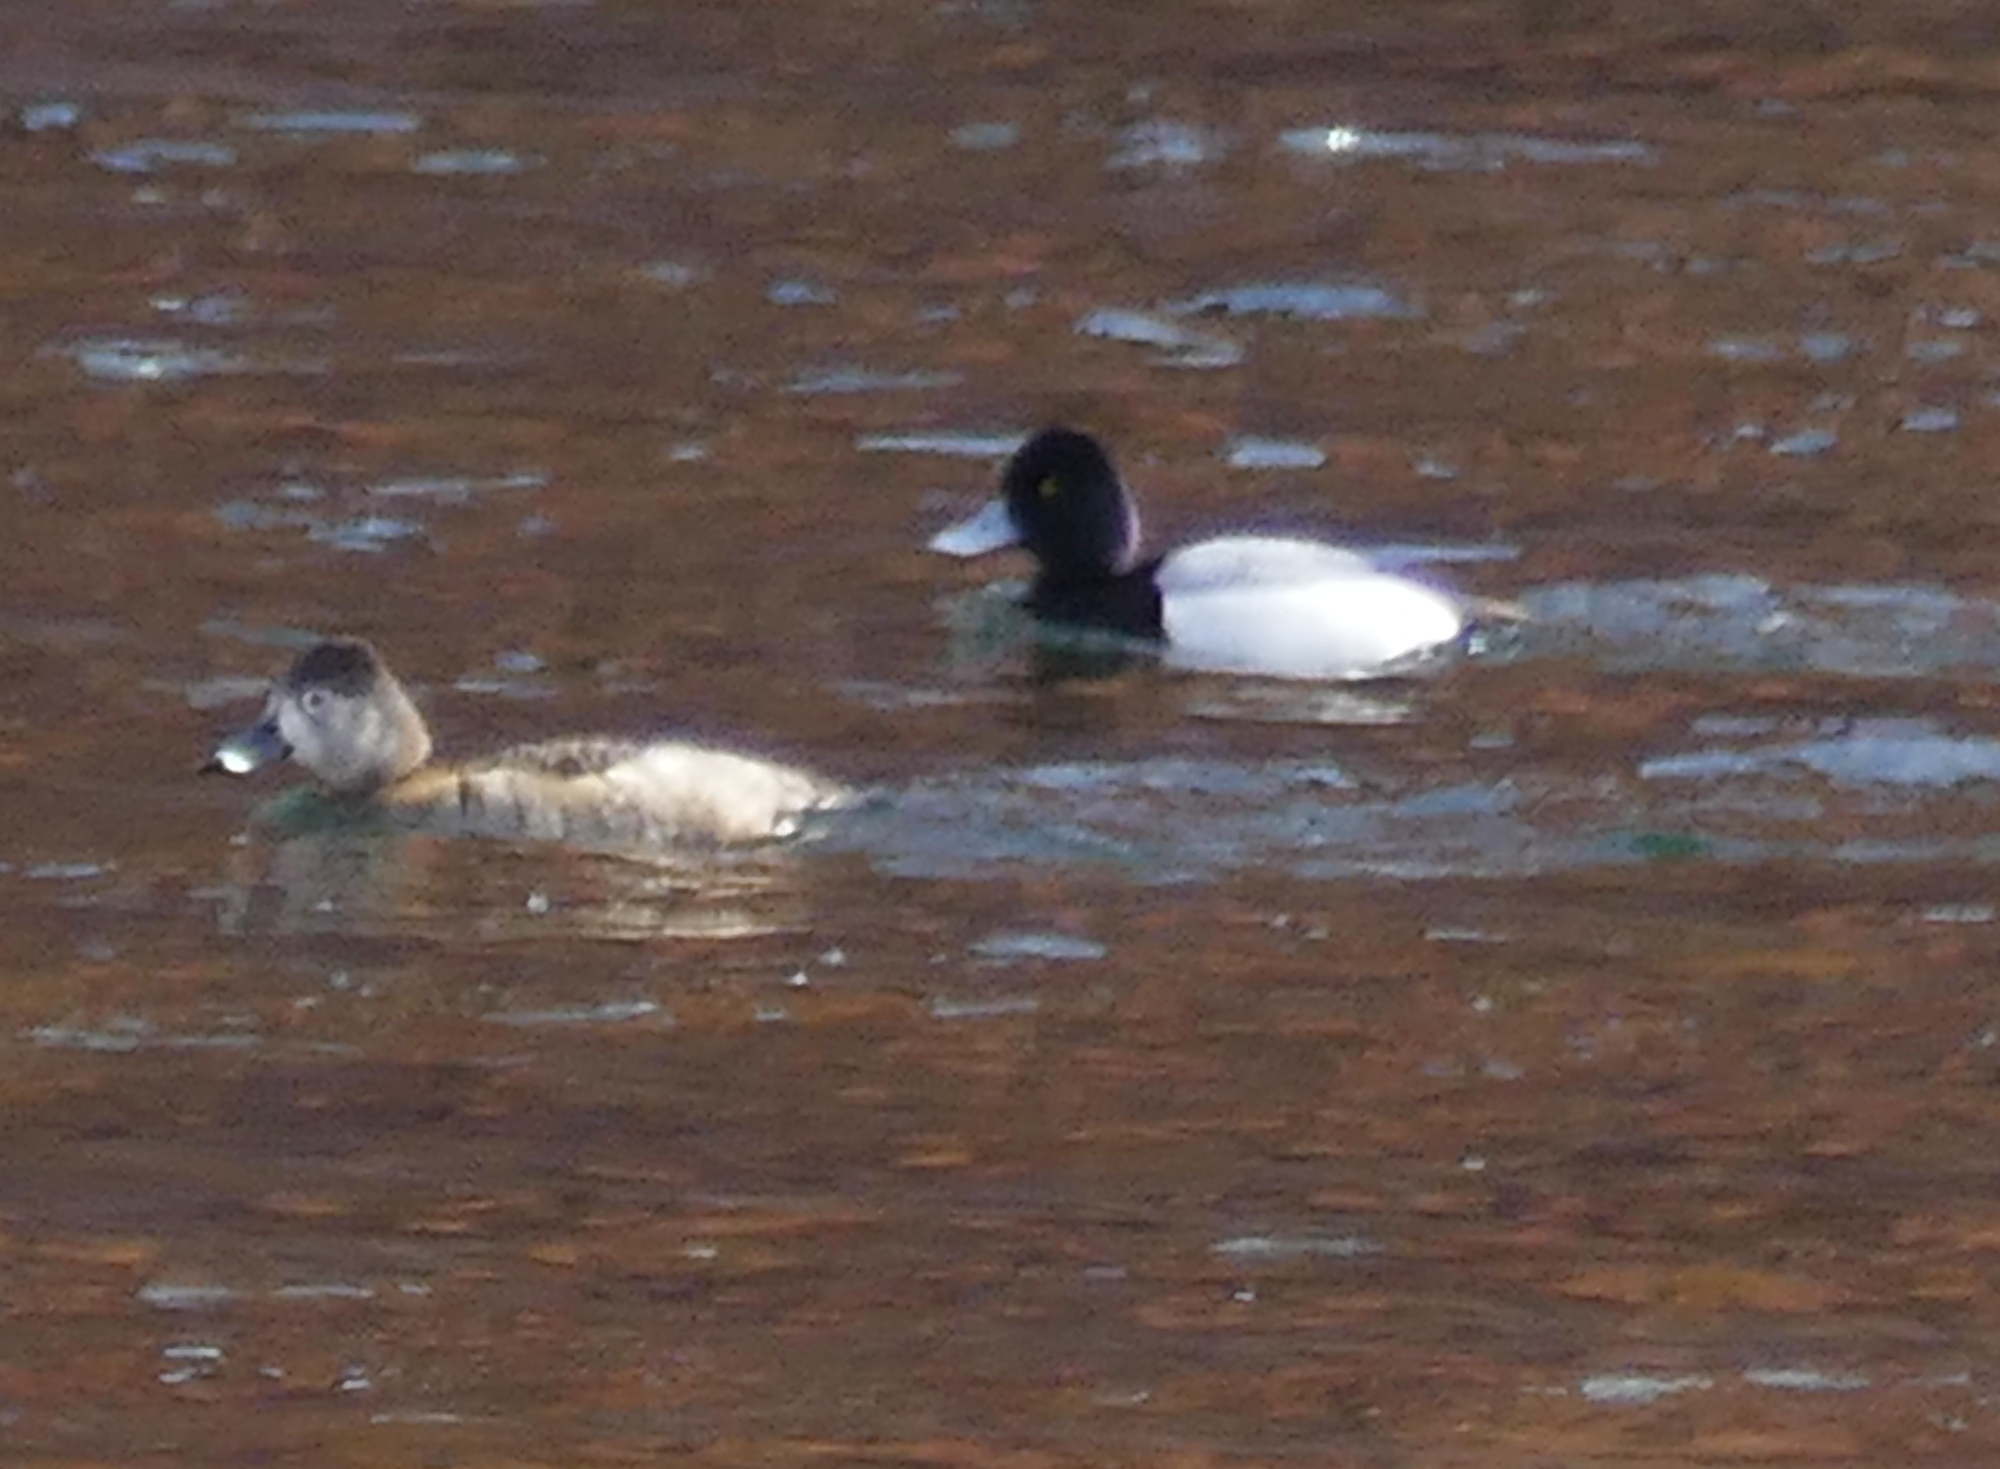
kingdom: Animalia
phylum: Chordata
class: Aves
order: Anseriformes
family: Anatidae
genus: Aythya
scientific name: Aythya affinis
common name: Lesser scaup
